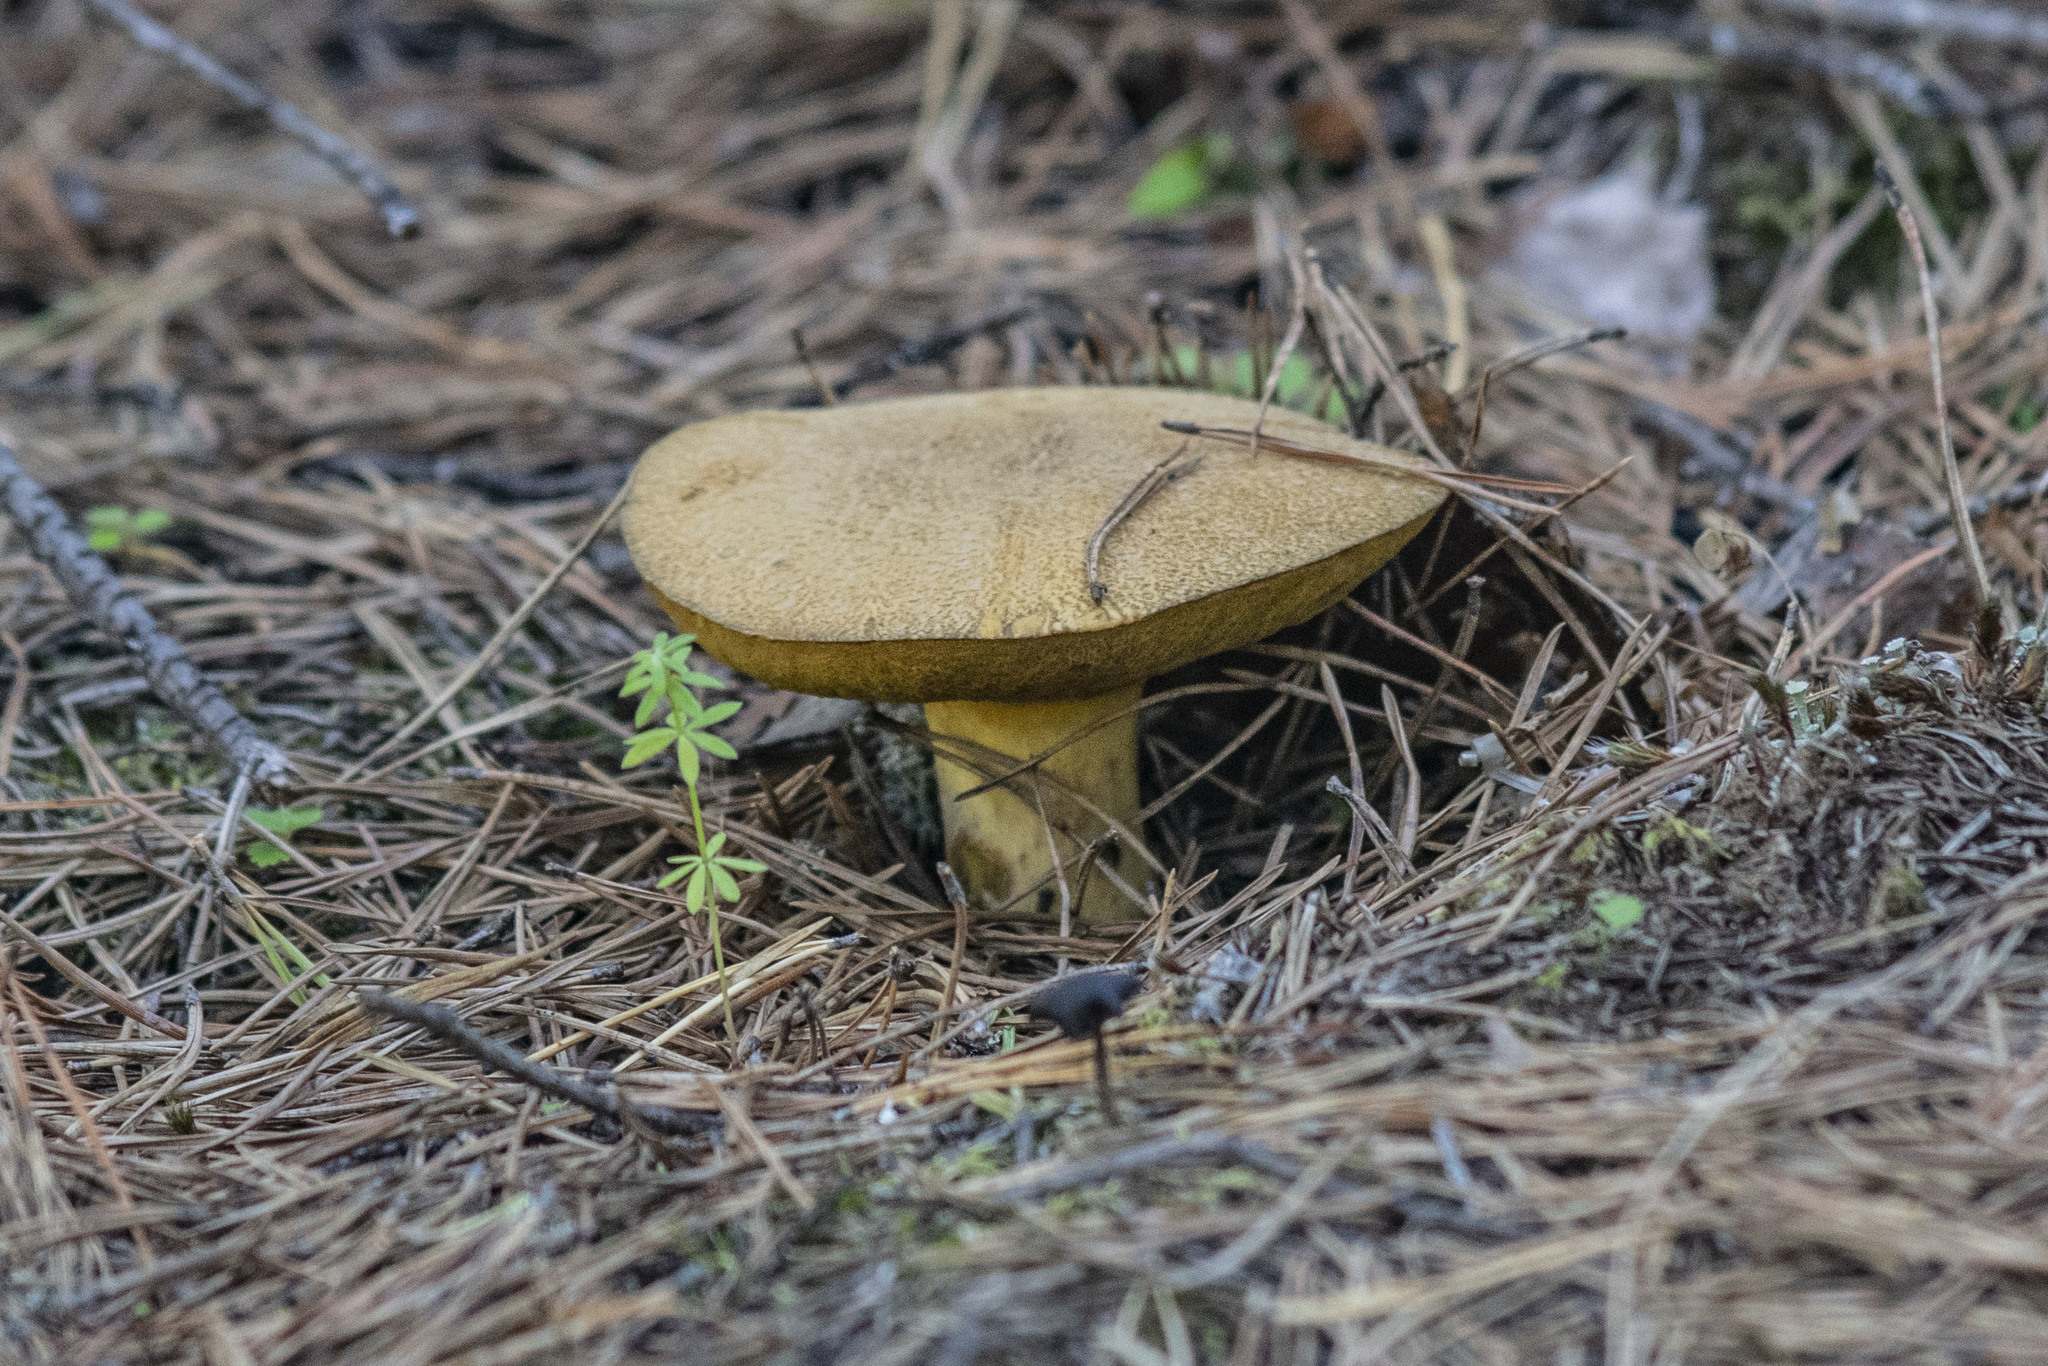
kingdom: Fungi
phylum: Basidiomycota
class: Agaricomycetes
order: Boletales
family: Suillaceae
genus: Suillus
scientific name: Suillus variegatus
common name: Velvet bolete
